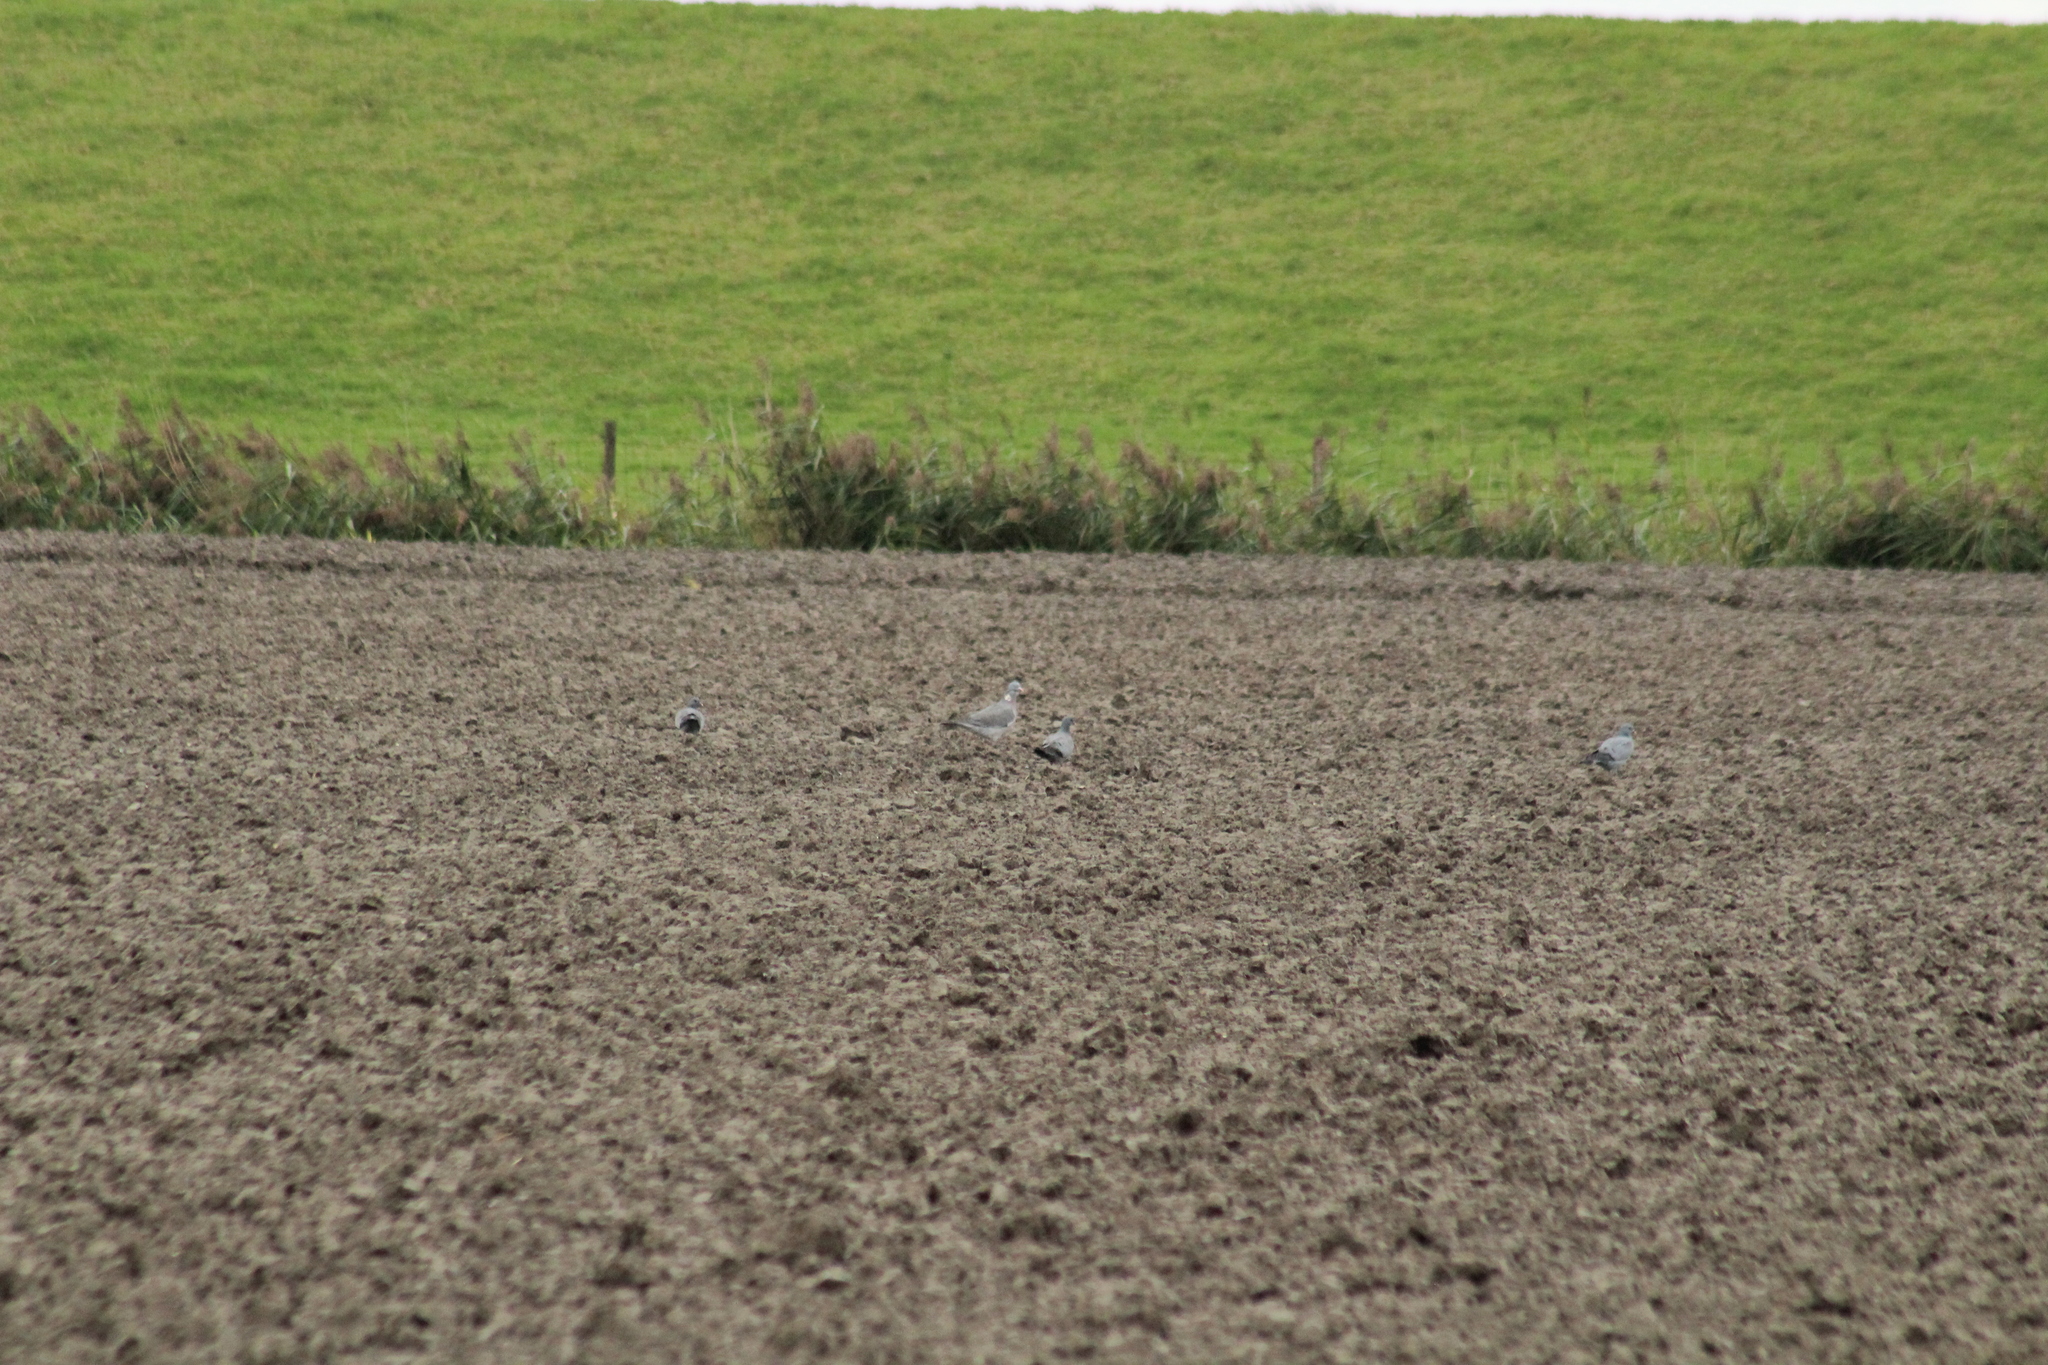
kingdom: Animalia
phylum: Chordata
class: Aves
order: Columbiformes
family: Columbidae
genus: Columba
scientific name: Columba palumbus
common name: Common wood pigeon
